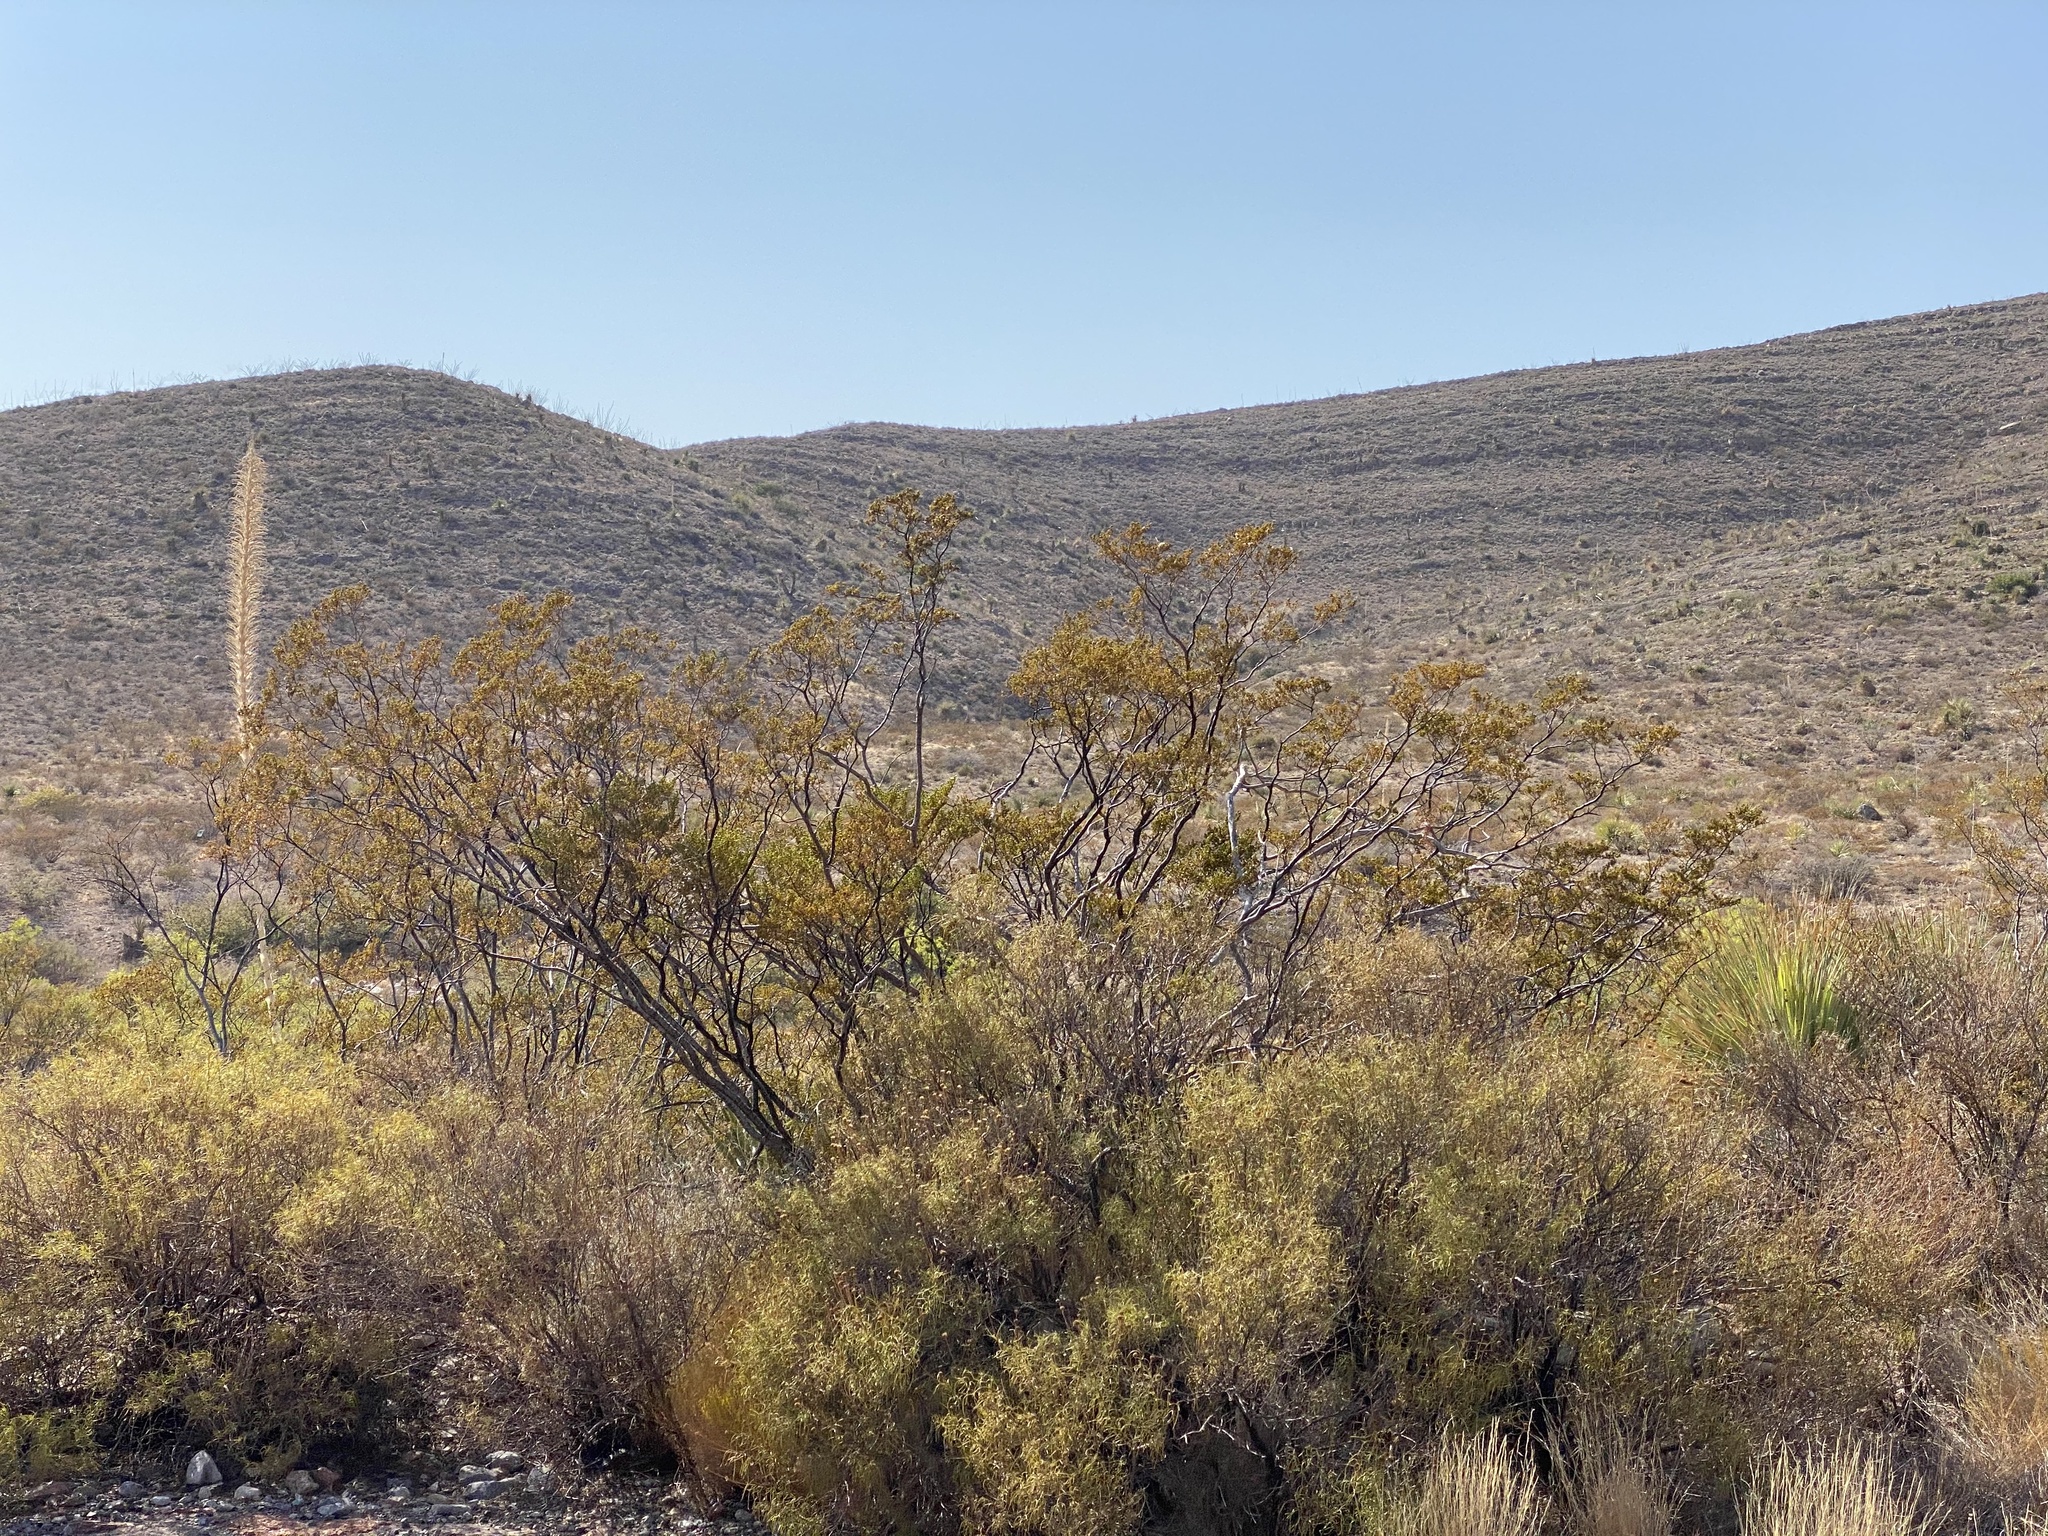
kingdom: Plantae
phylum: Tracheophyta
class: Magnoliopsida
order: Zygophyllales
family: Zygophyllaceae
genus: Larrea
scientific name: Larrea tridentata
